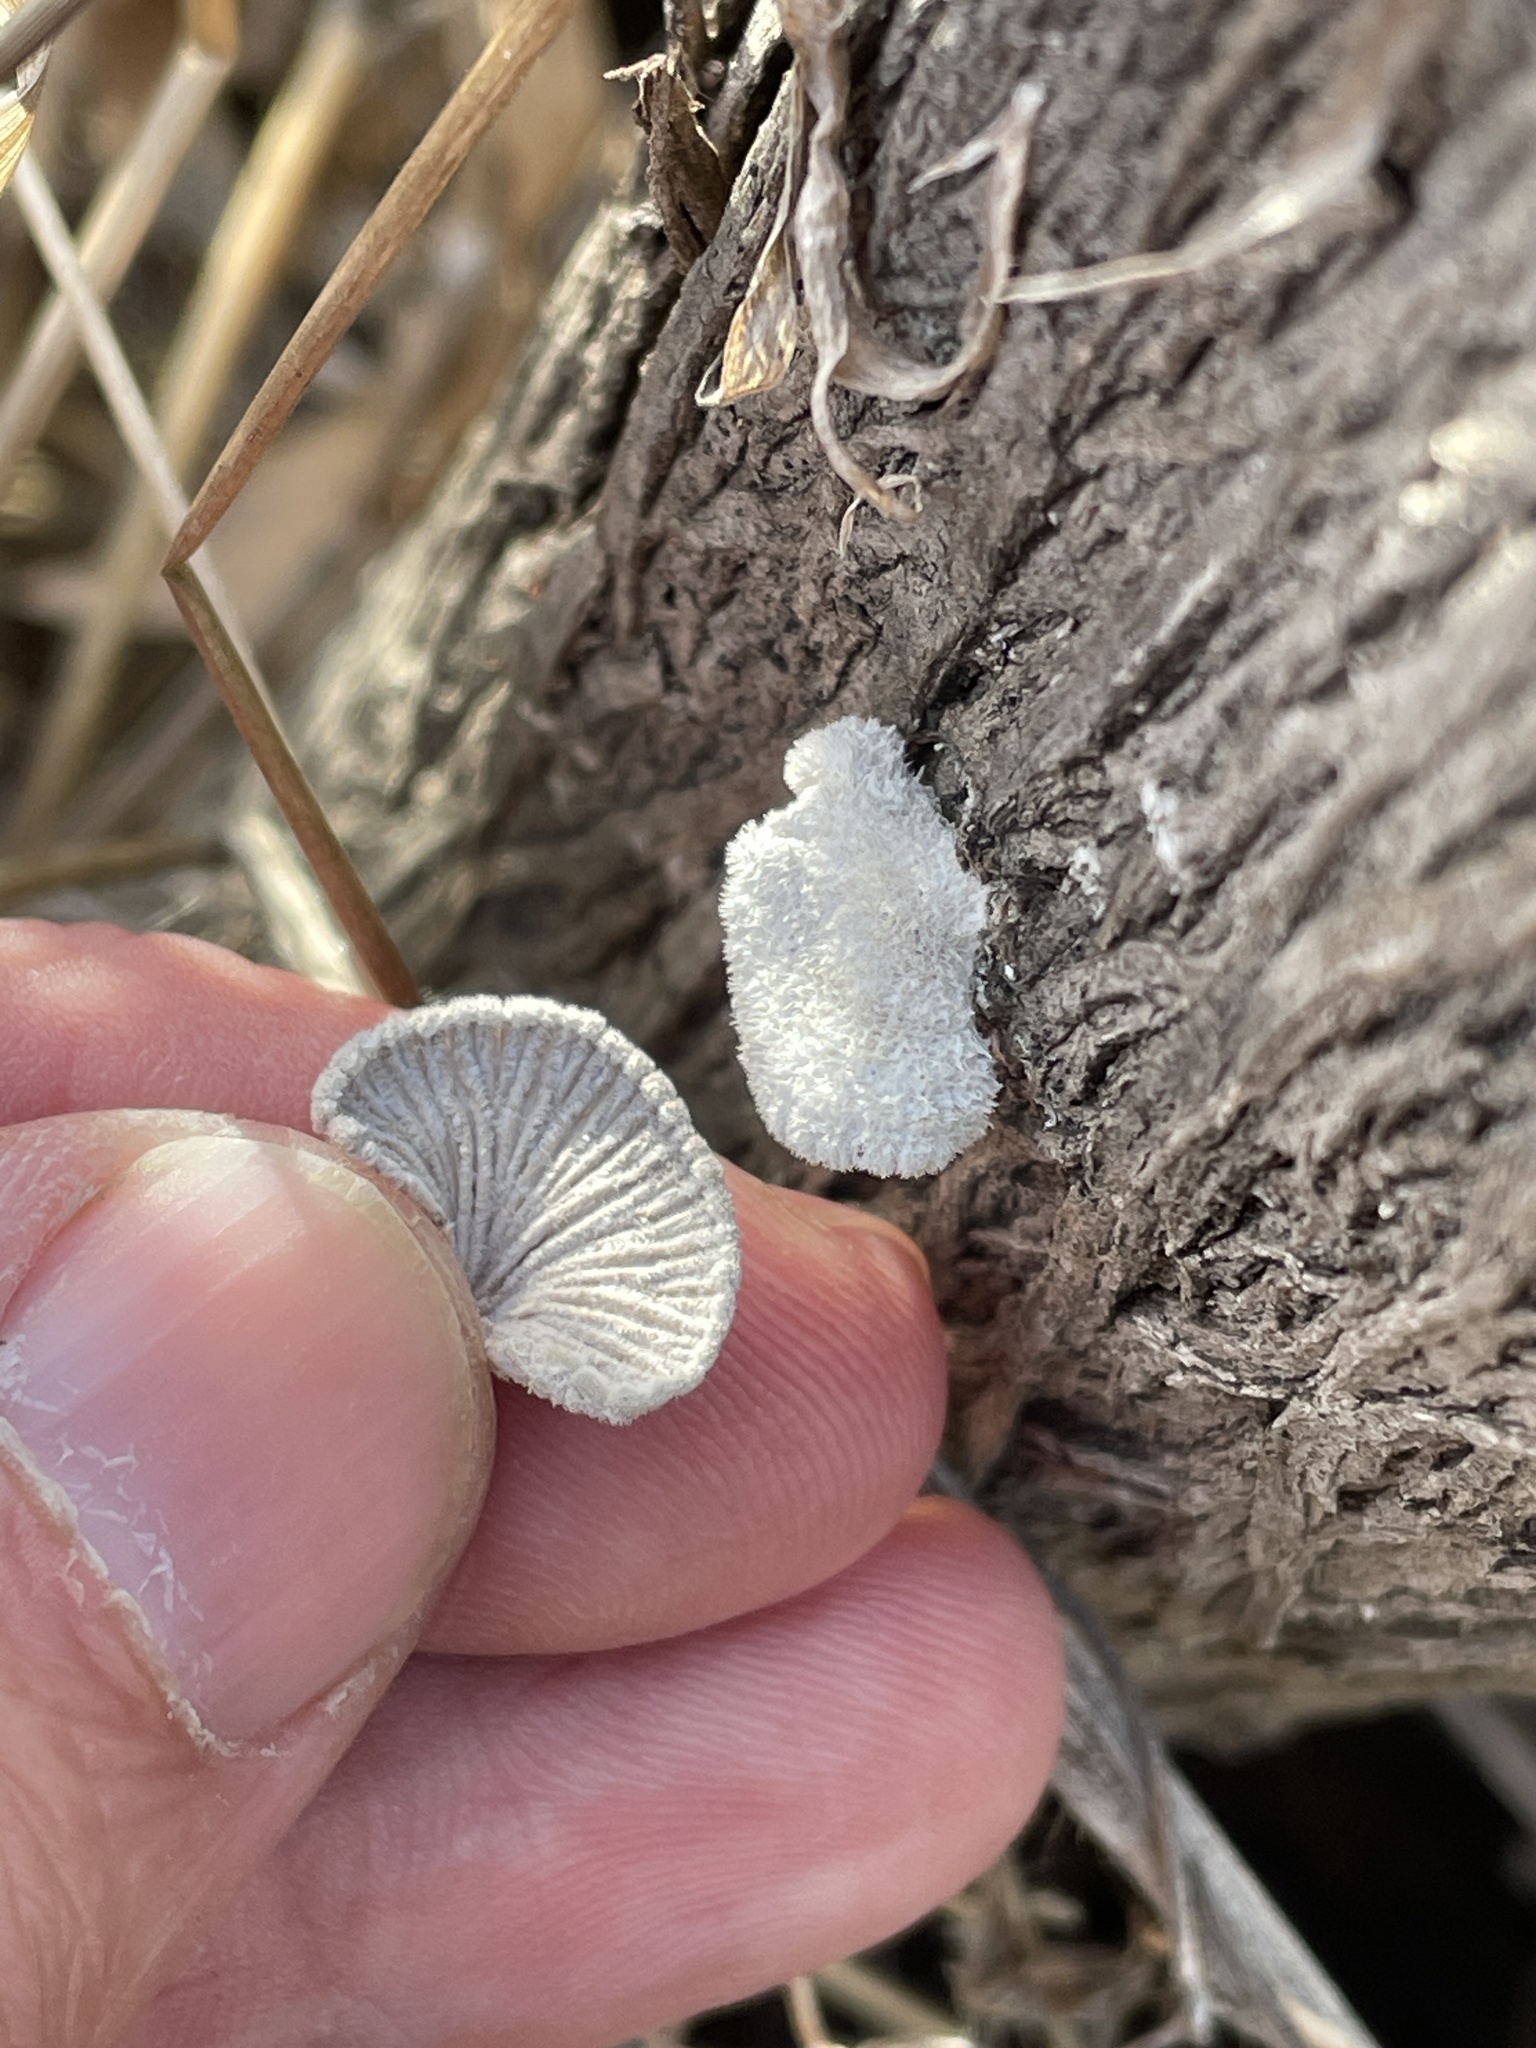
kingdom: Fungi
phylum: Basidiomycota
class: Agaricomycetes
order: Agaricales
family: Schizophyllaceae
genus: Schizophyllum
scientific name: Schizophyllum commune
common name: Common porecrust
